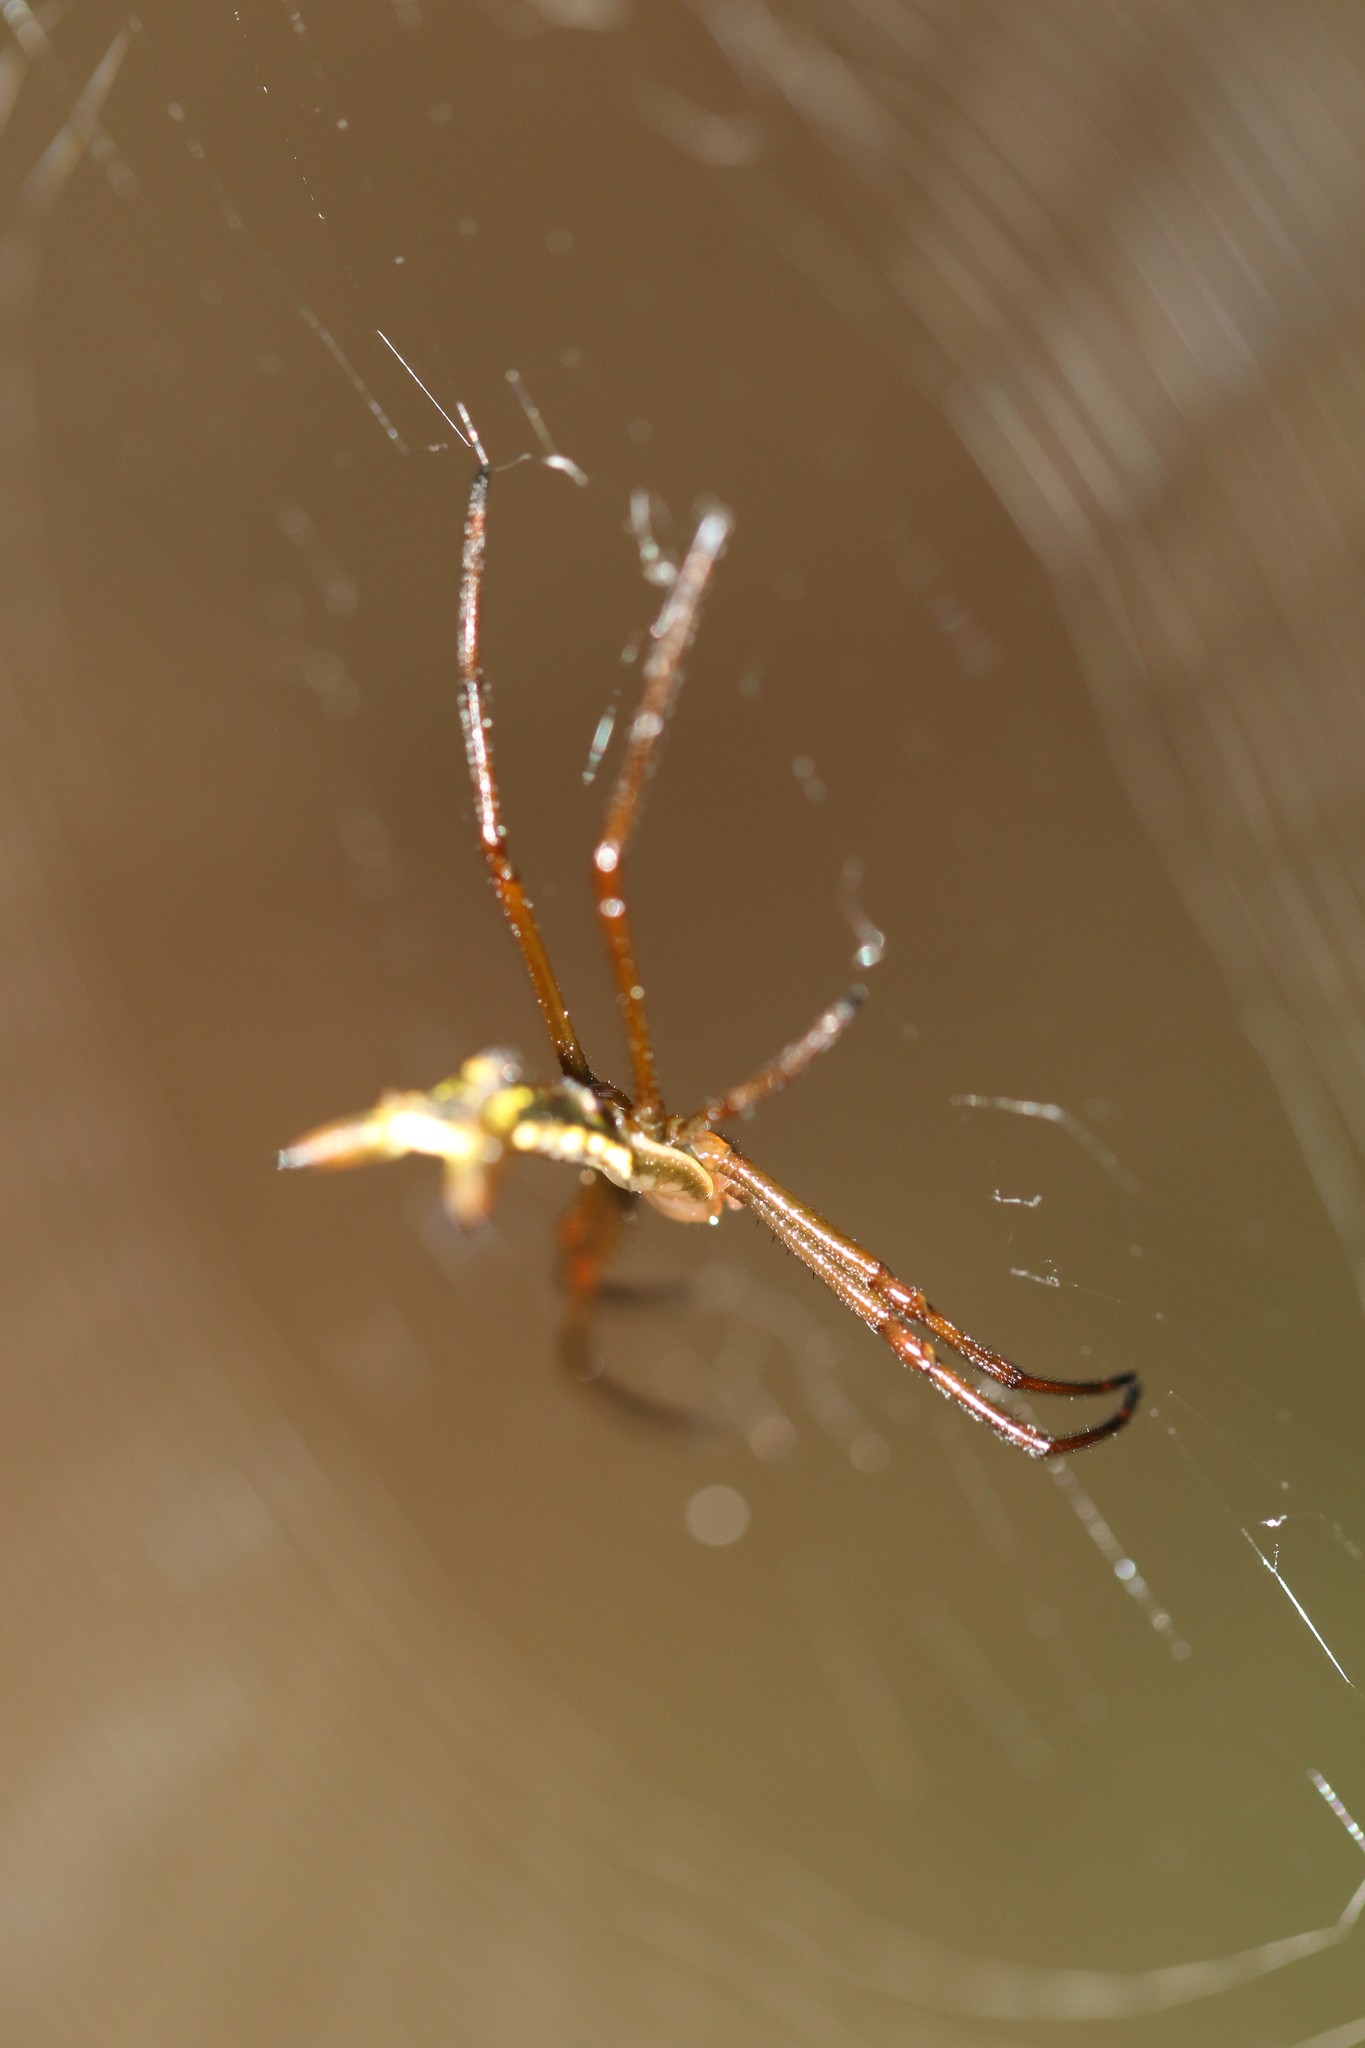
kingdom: Animalia
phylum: Arthropoda
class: Arachnida
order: Araneae
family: Araneidae
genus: Micrathena
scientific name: Micrathena crassispina
